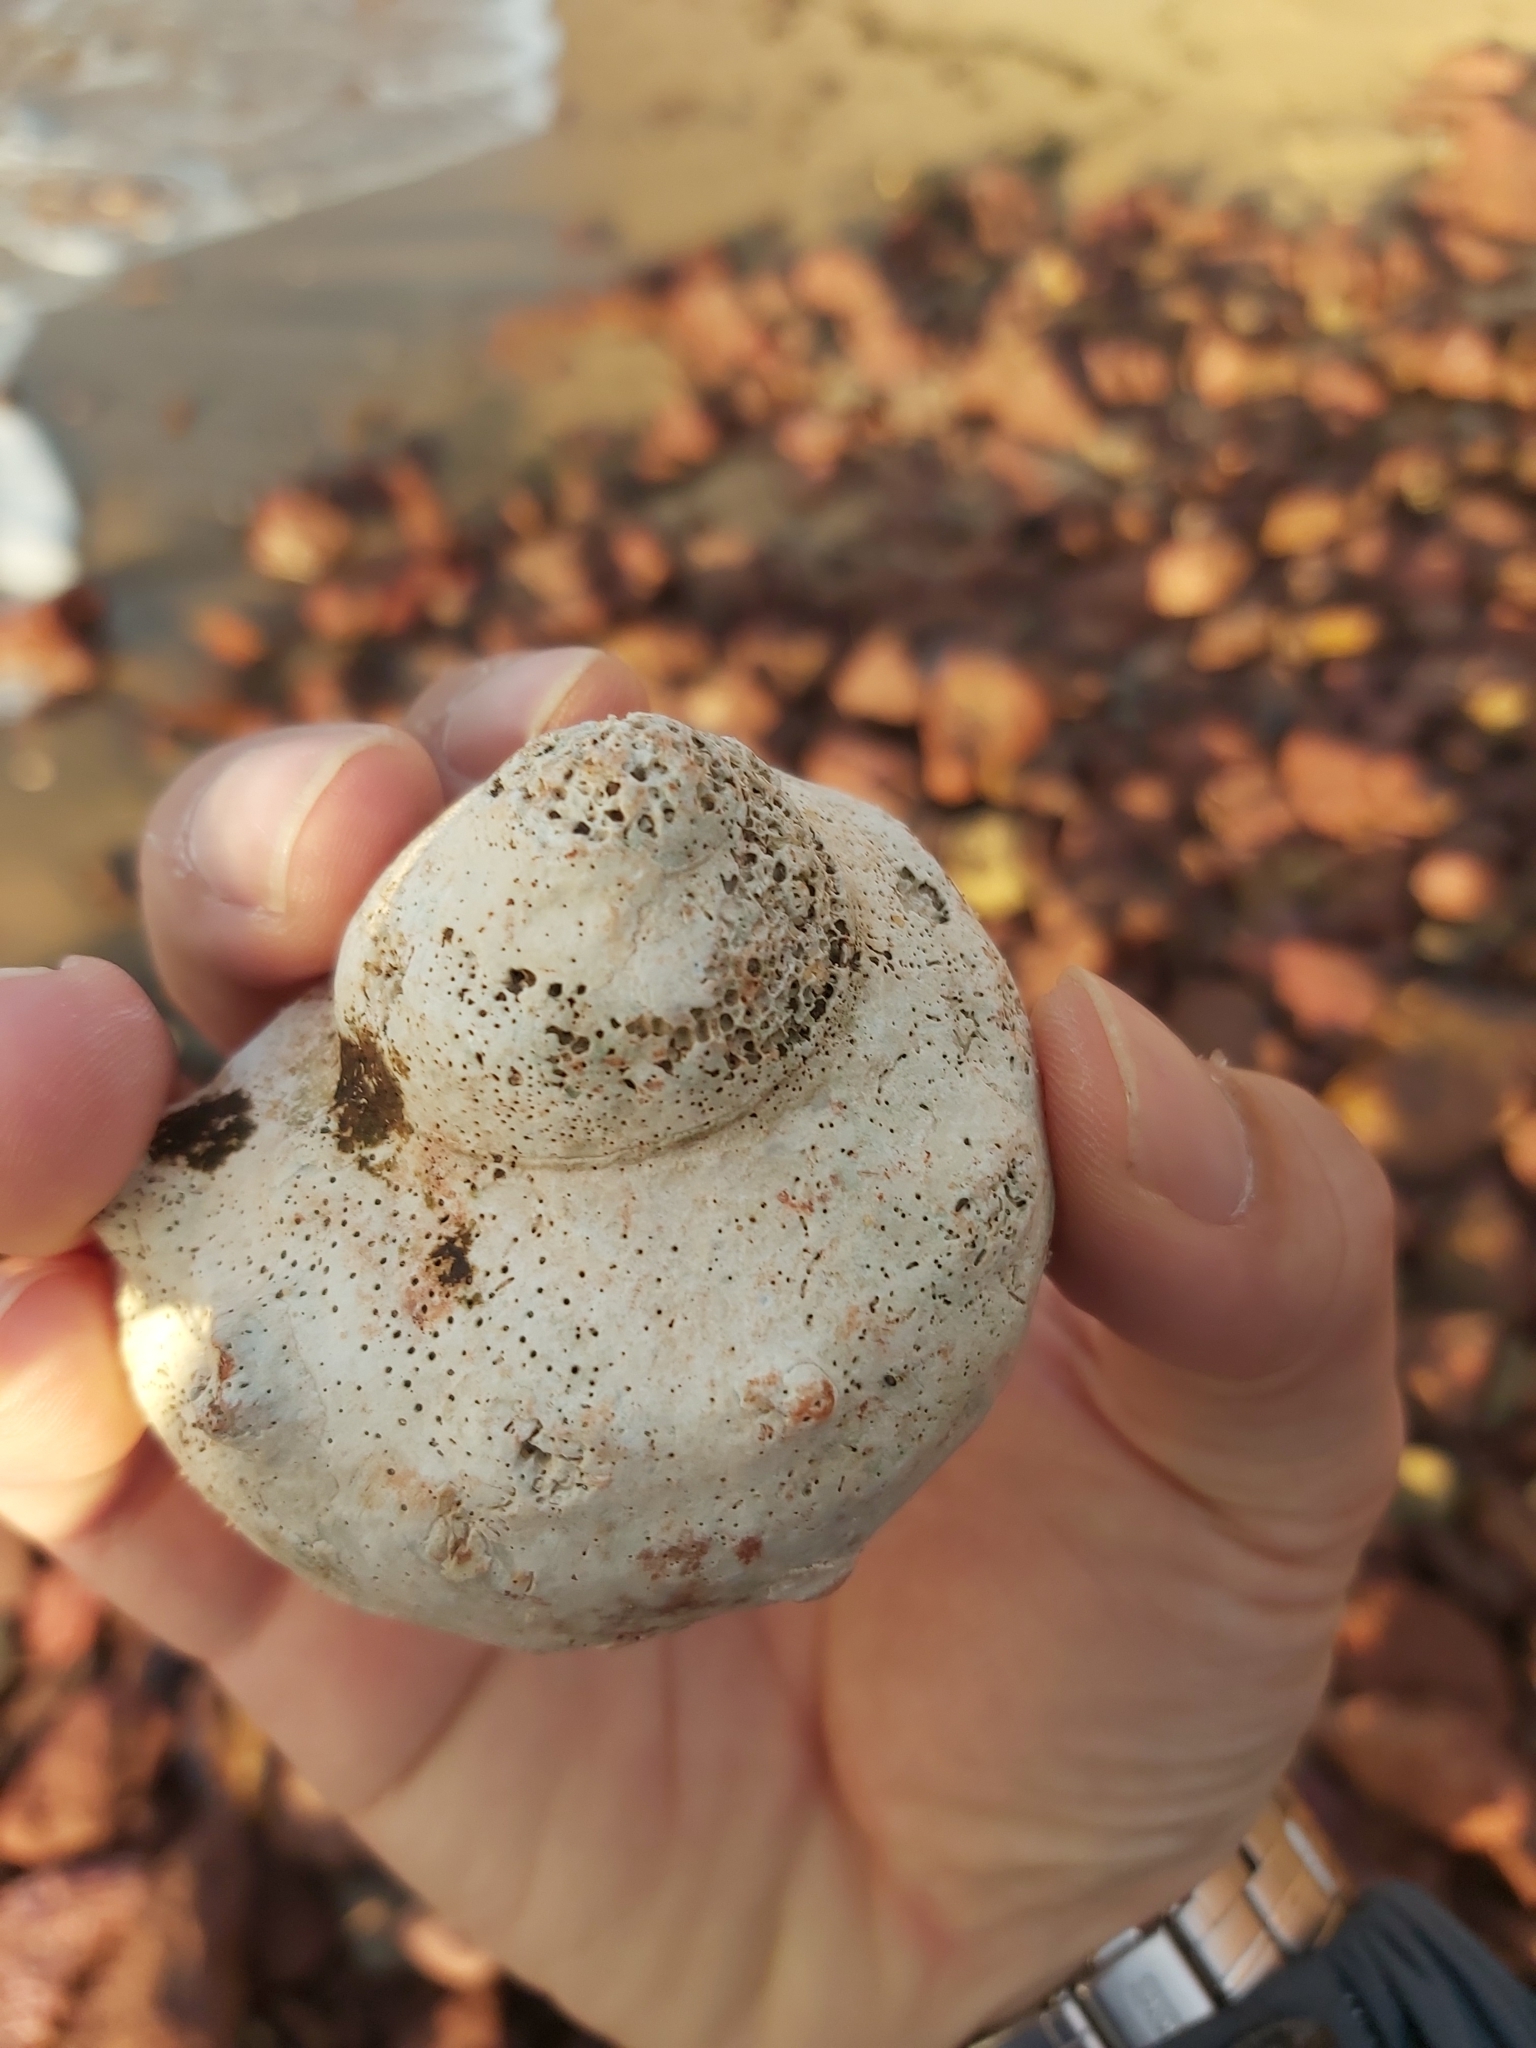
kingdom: Animalia
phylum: Mollusca
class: Gastropoda
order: Trochida
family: Turbinidae
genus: Turbo
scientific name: Turbo militaris
